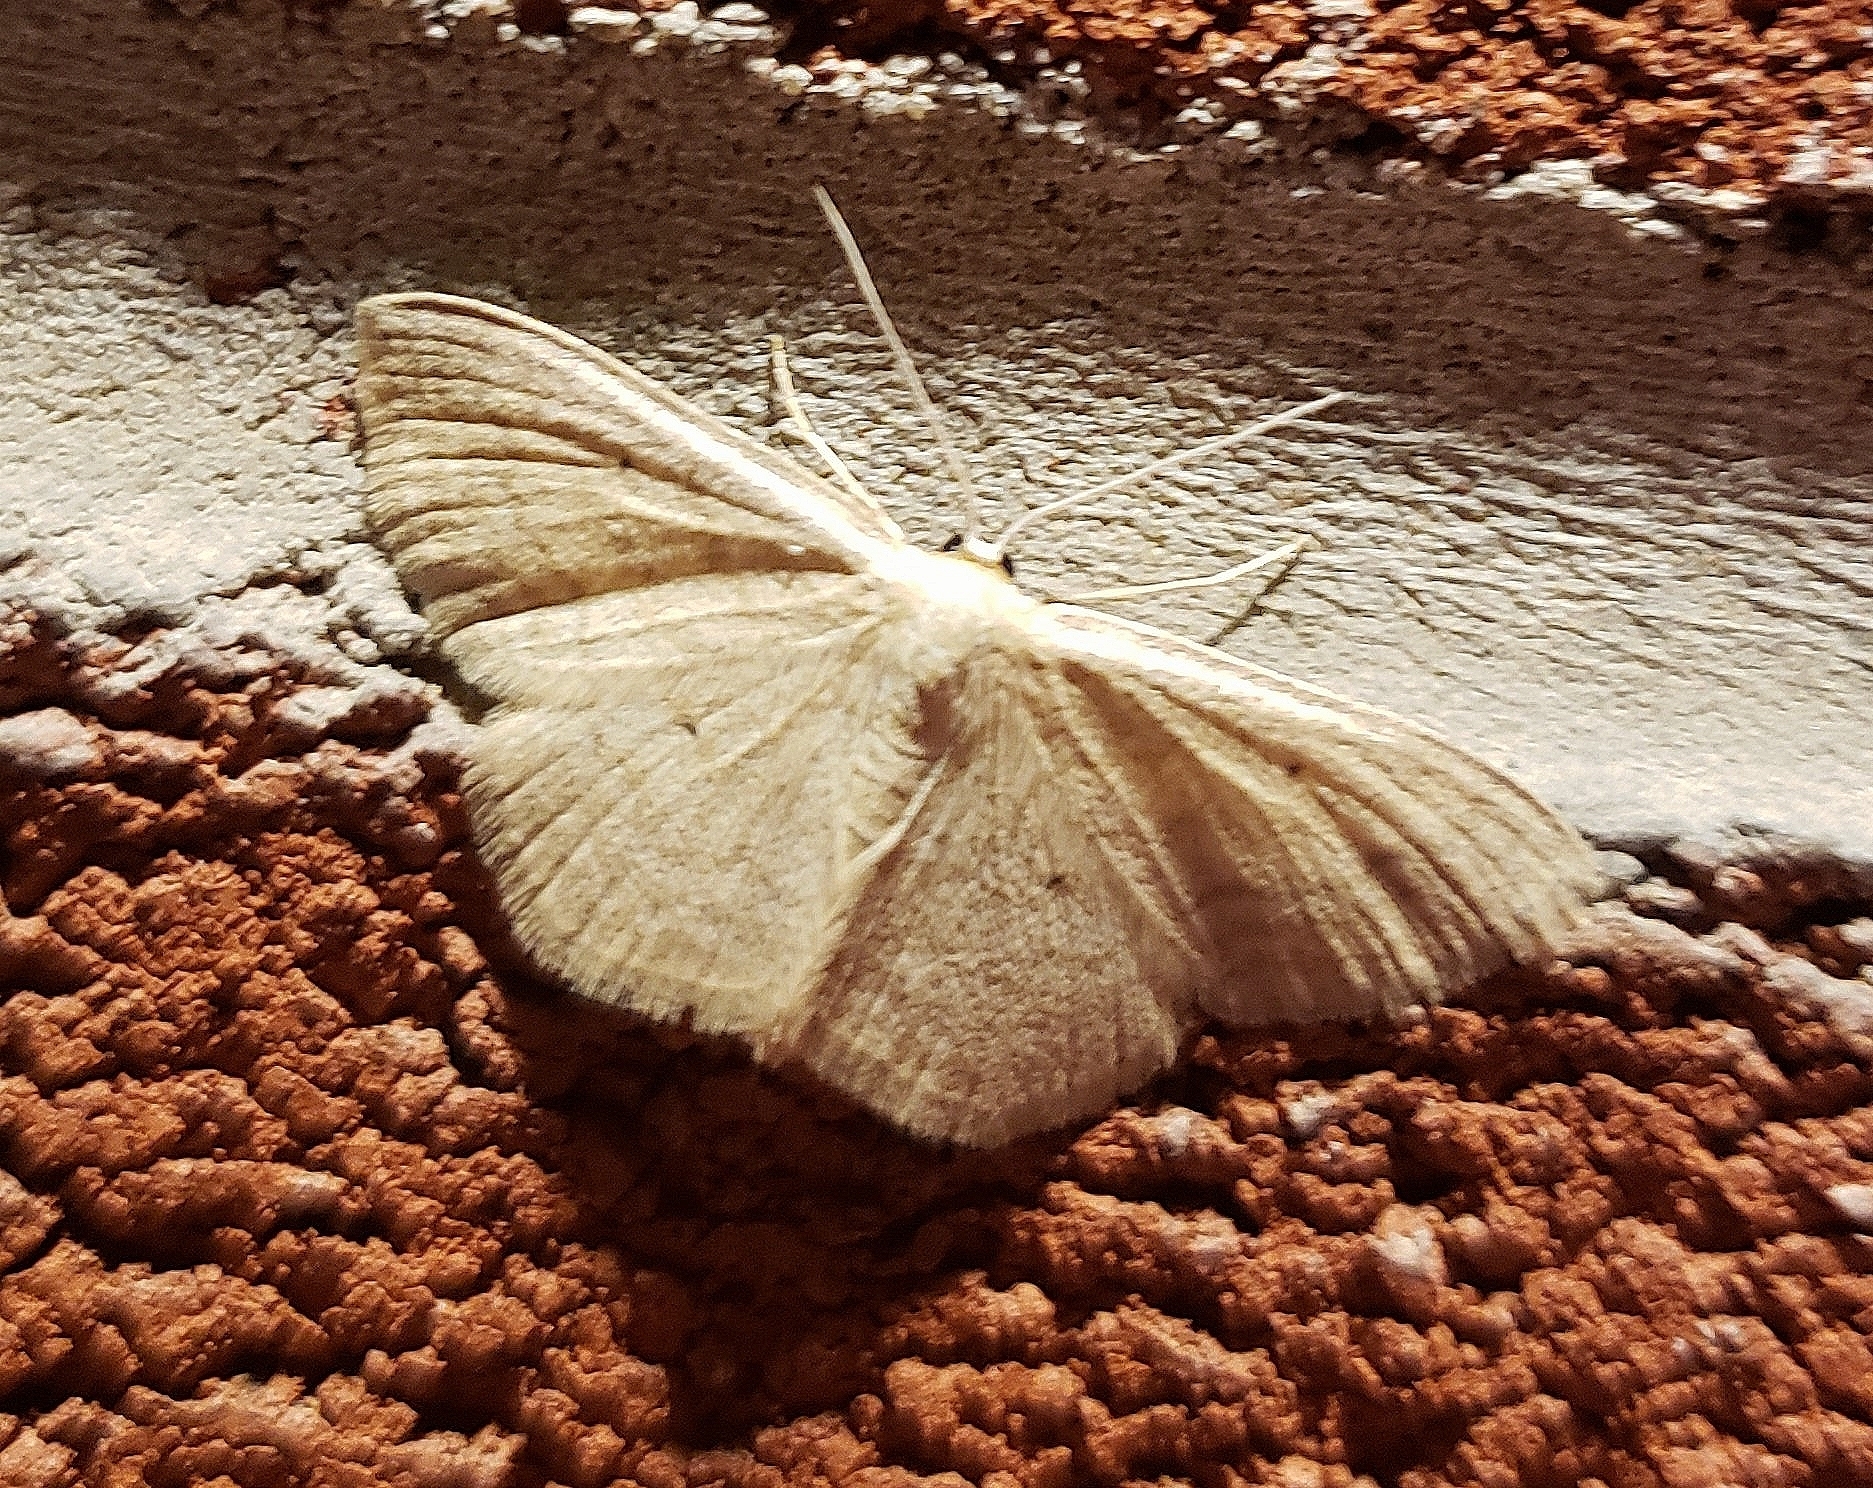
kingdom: Animalia
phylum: Arthropoda
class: Insecta
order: Lepidoptera
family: Geometridae
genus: Scopula
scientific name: Scopula inductata
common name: Soft-lined wave
